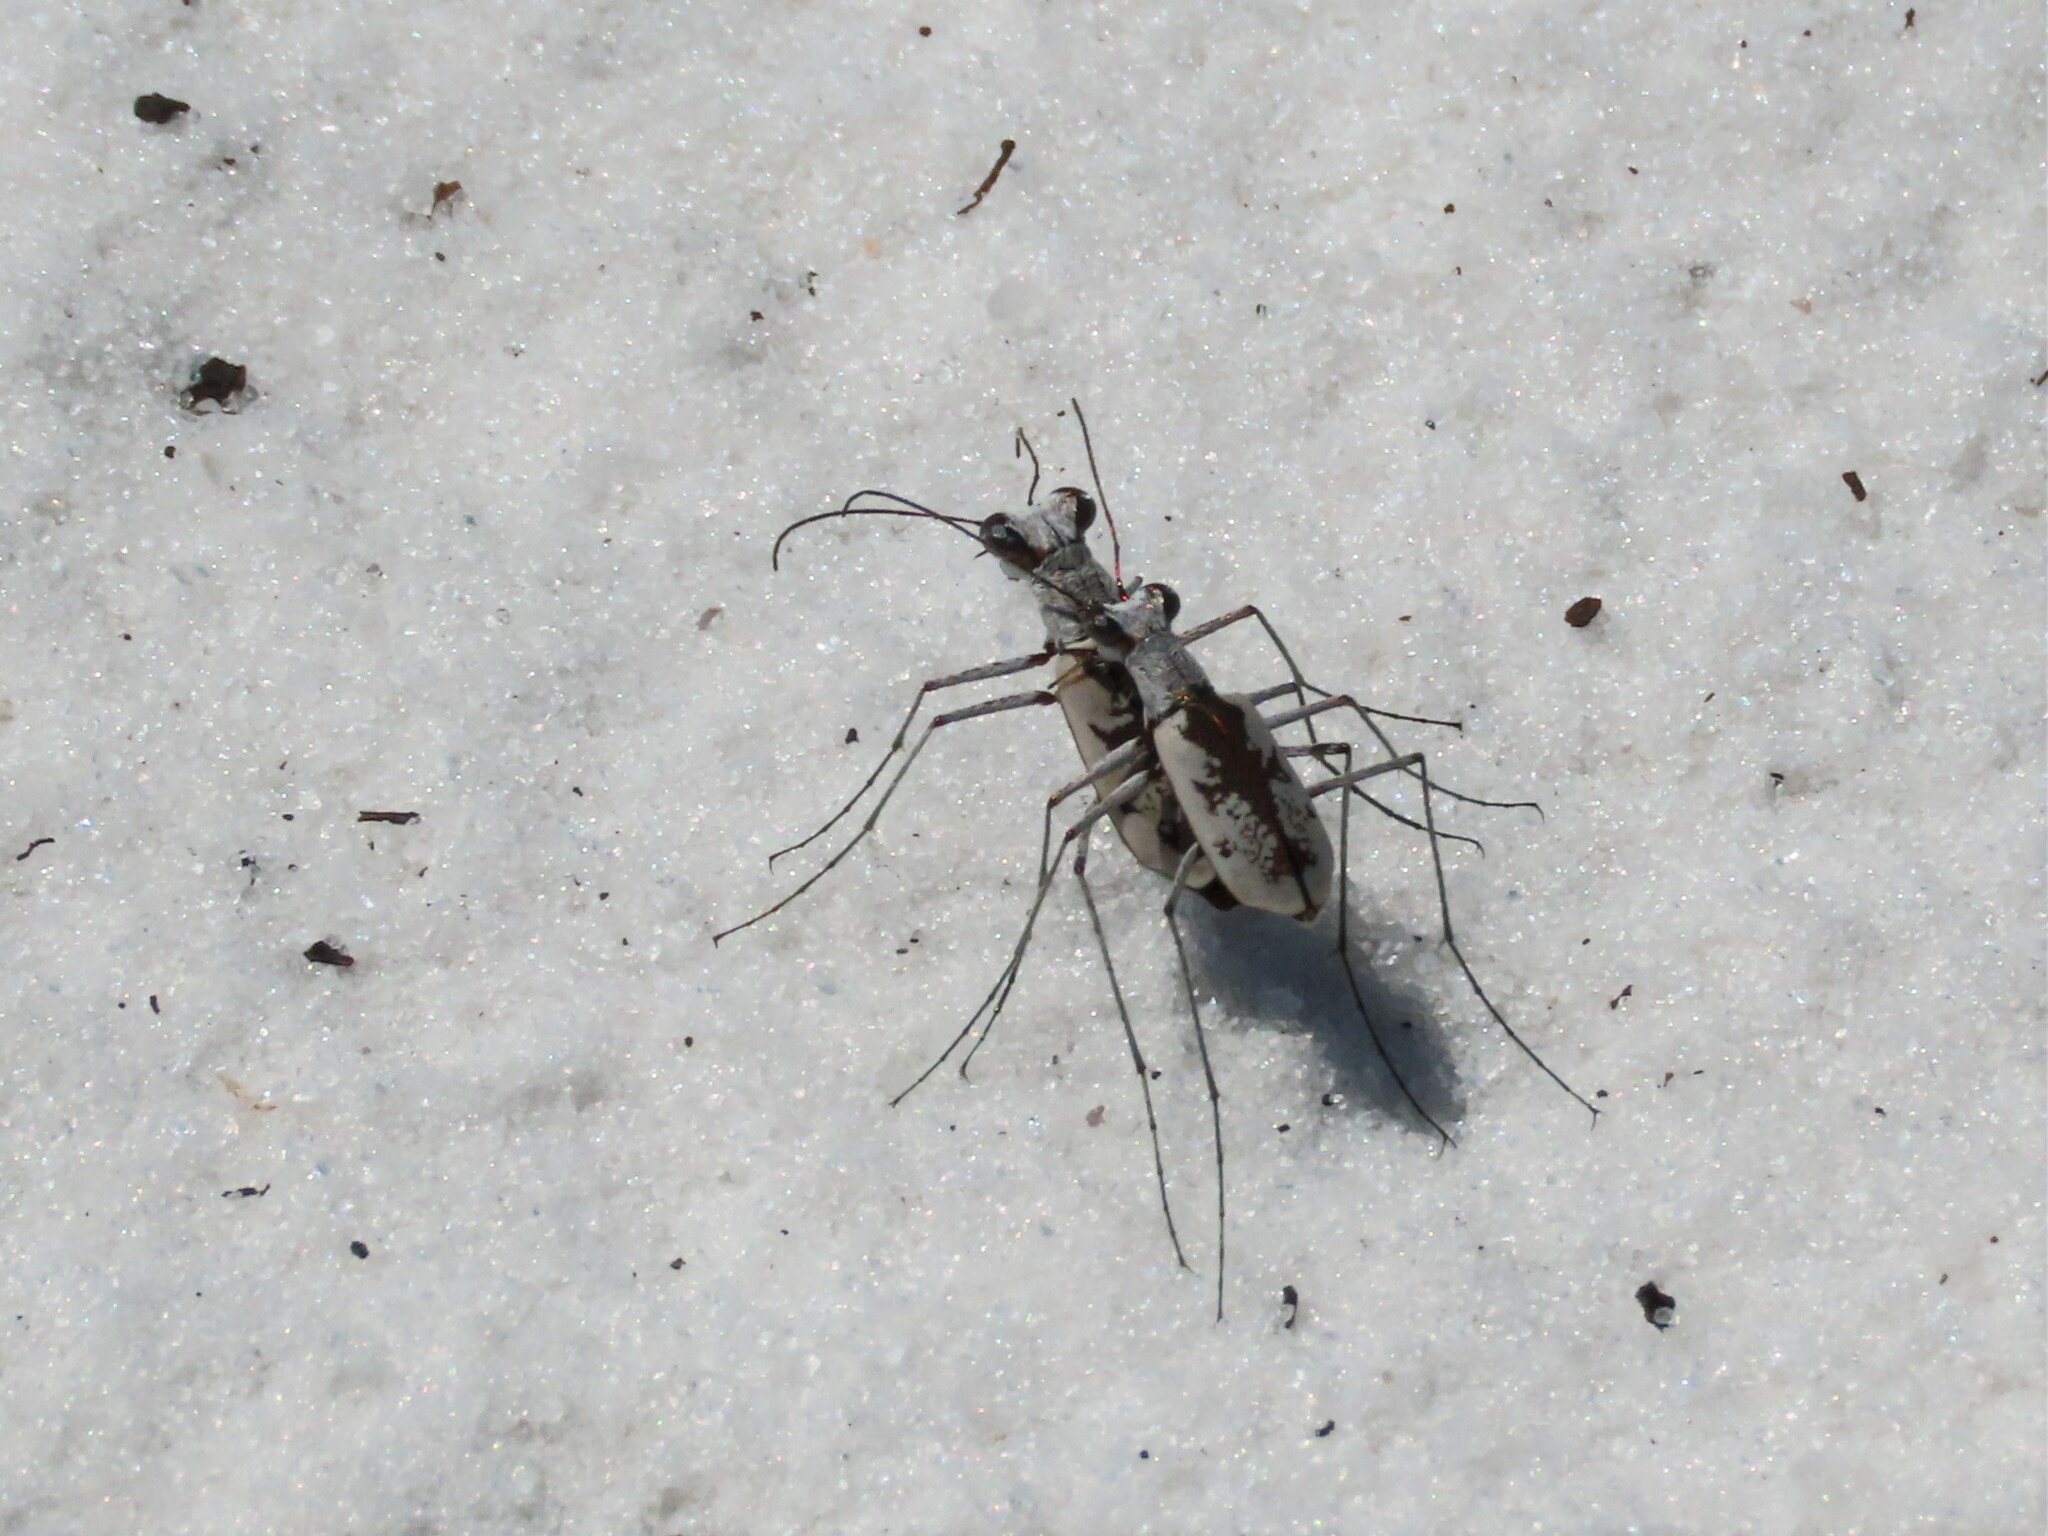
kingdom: Animalia
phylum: Arthropoda
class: Insecta
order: Coleoptera
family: Carabidae
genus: Ellipsoptera
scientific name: Ellipsoptera hirtilabris
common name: Moustached tiger beetle
